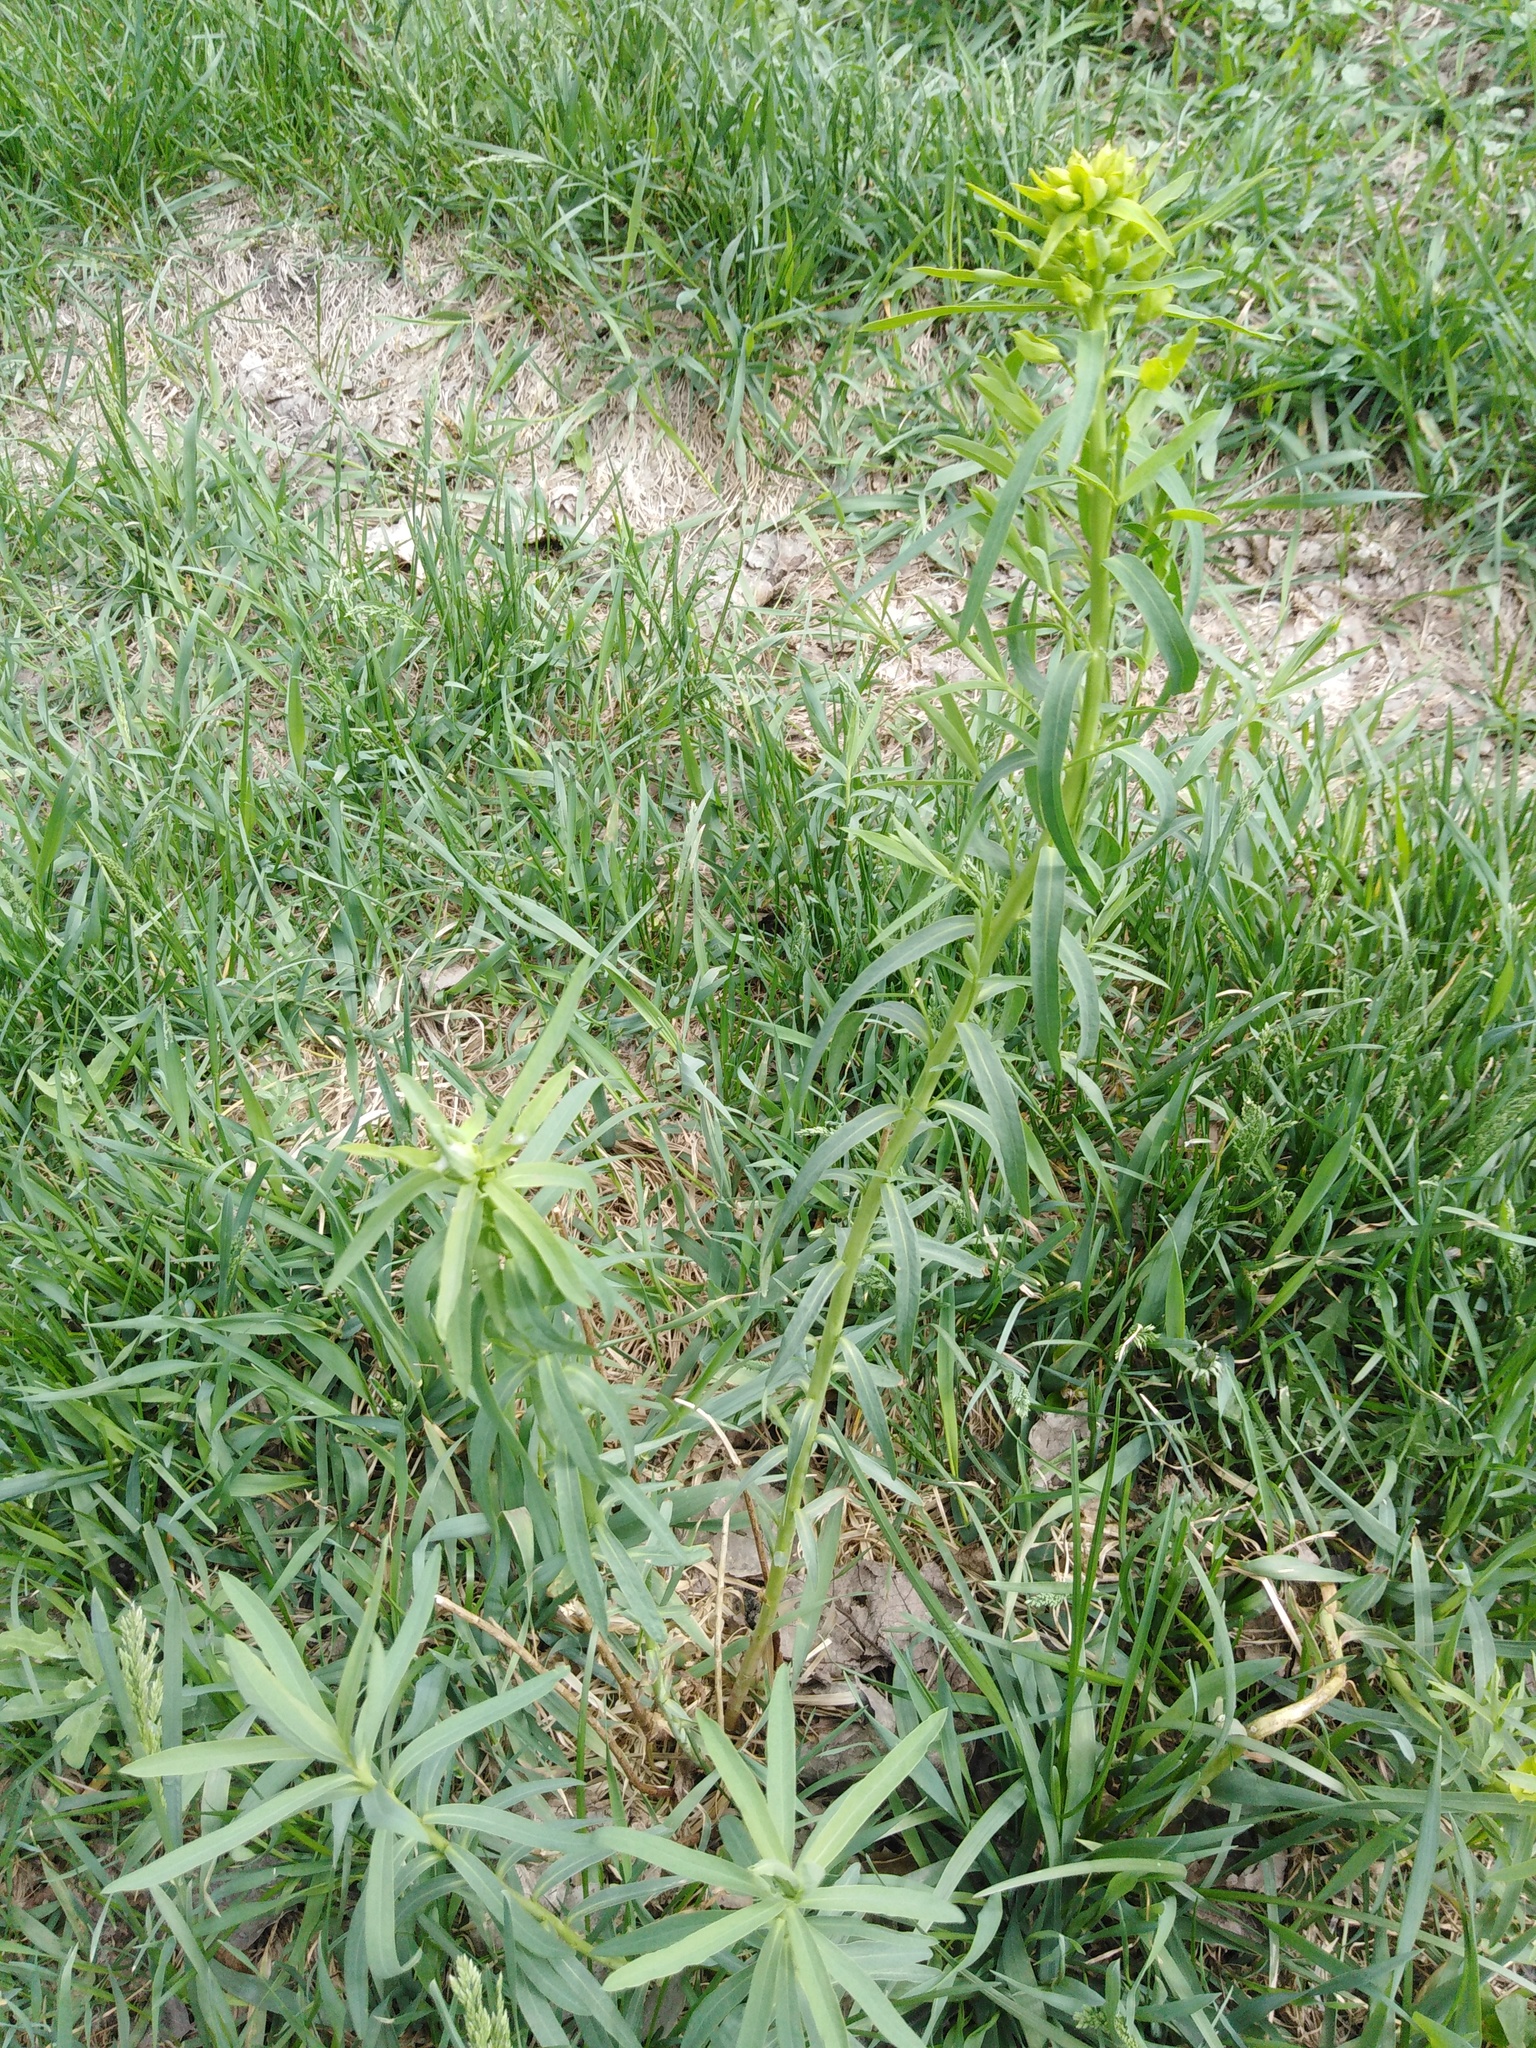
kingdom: Plantae
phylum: Tracheophyta
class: Magnoliopsida
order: Malpighiales
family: Euphorbiaceae
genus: Euphorbia
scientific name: Euphorbia virgata
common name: Leafy spurge
